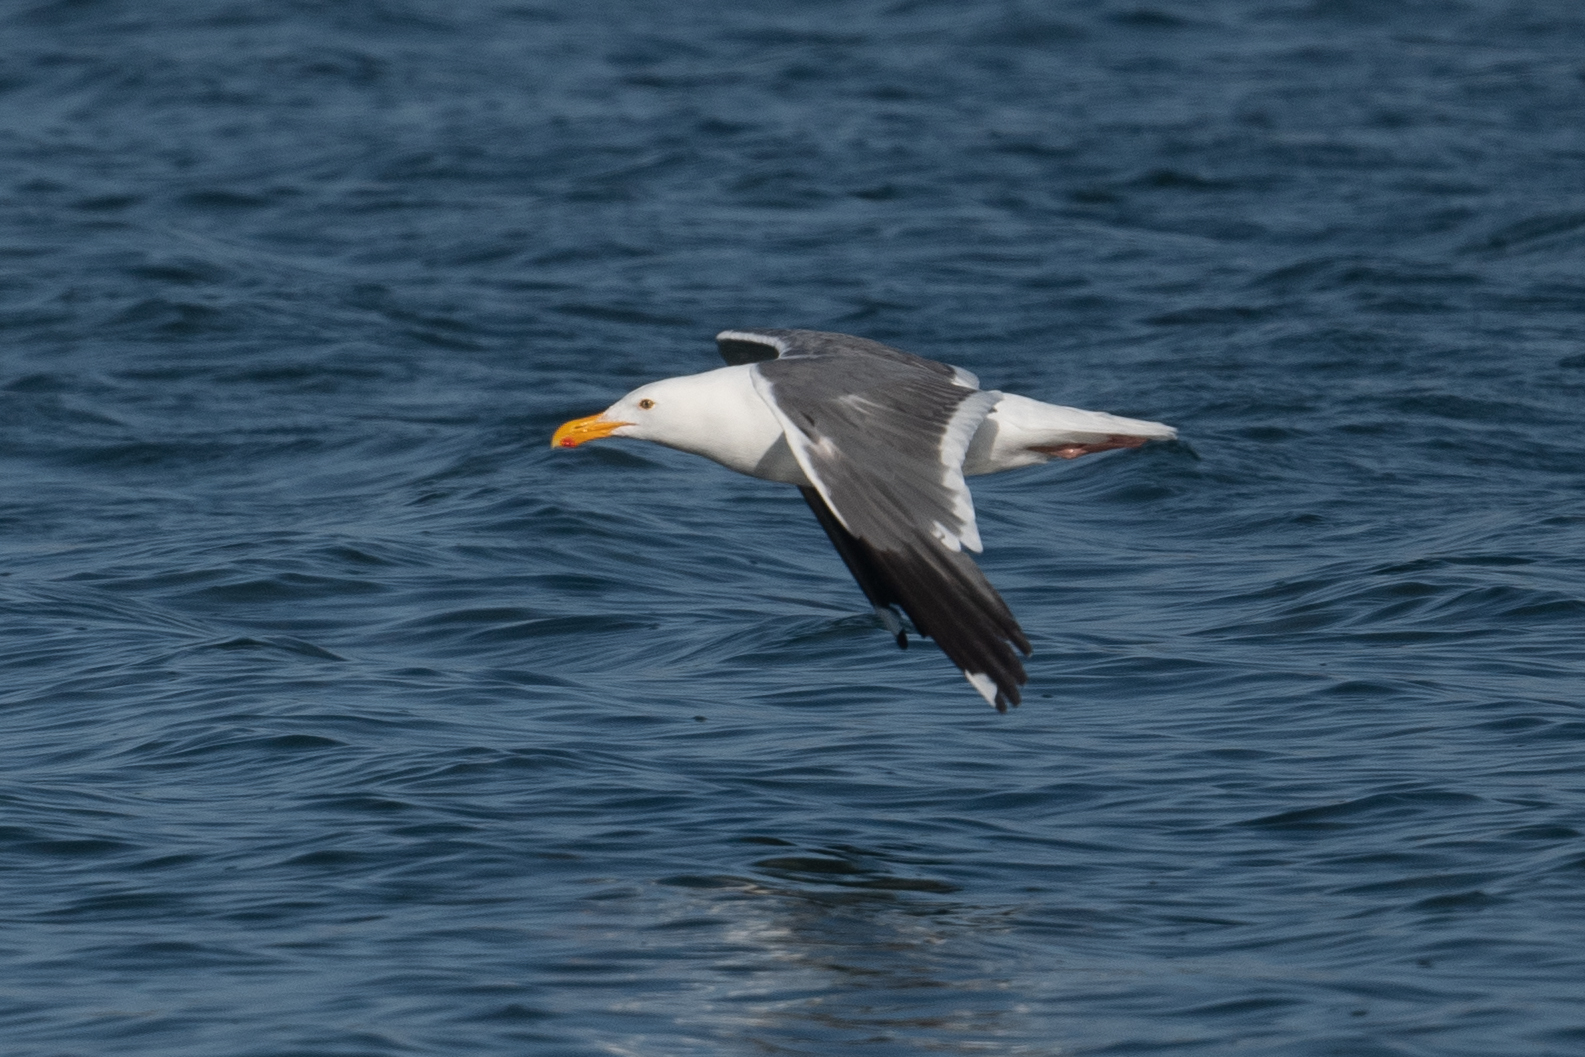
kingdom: Animalia
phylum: Chordata
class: Aves
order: Charadriiformes
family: Laridae
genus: Larus
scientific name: Larus occidentalis
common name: Western gull
